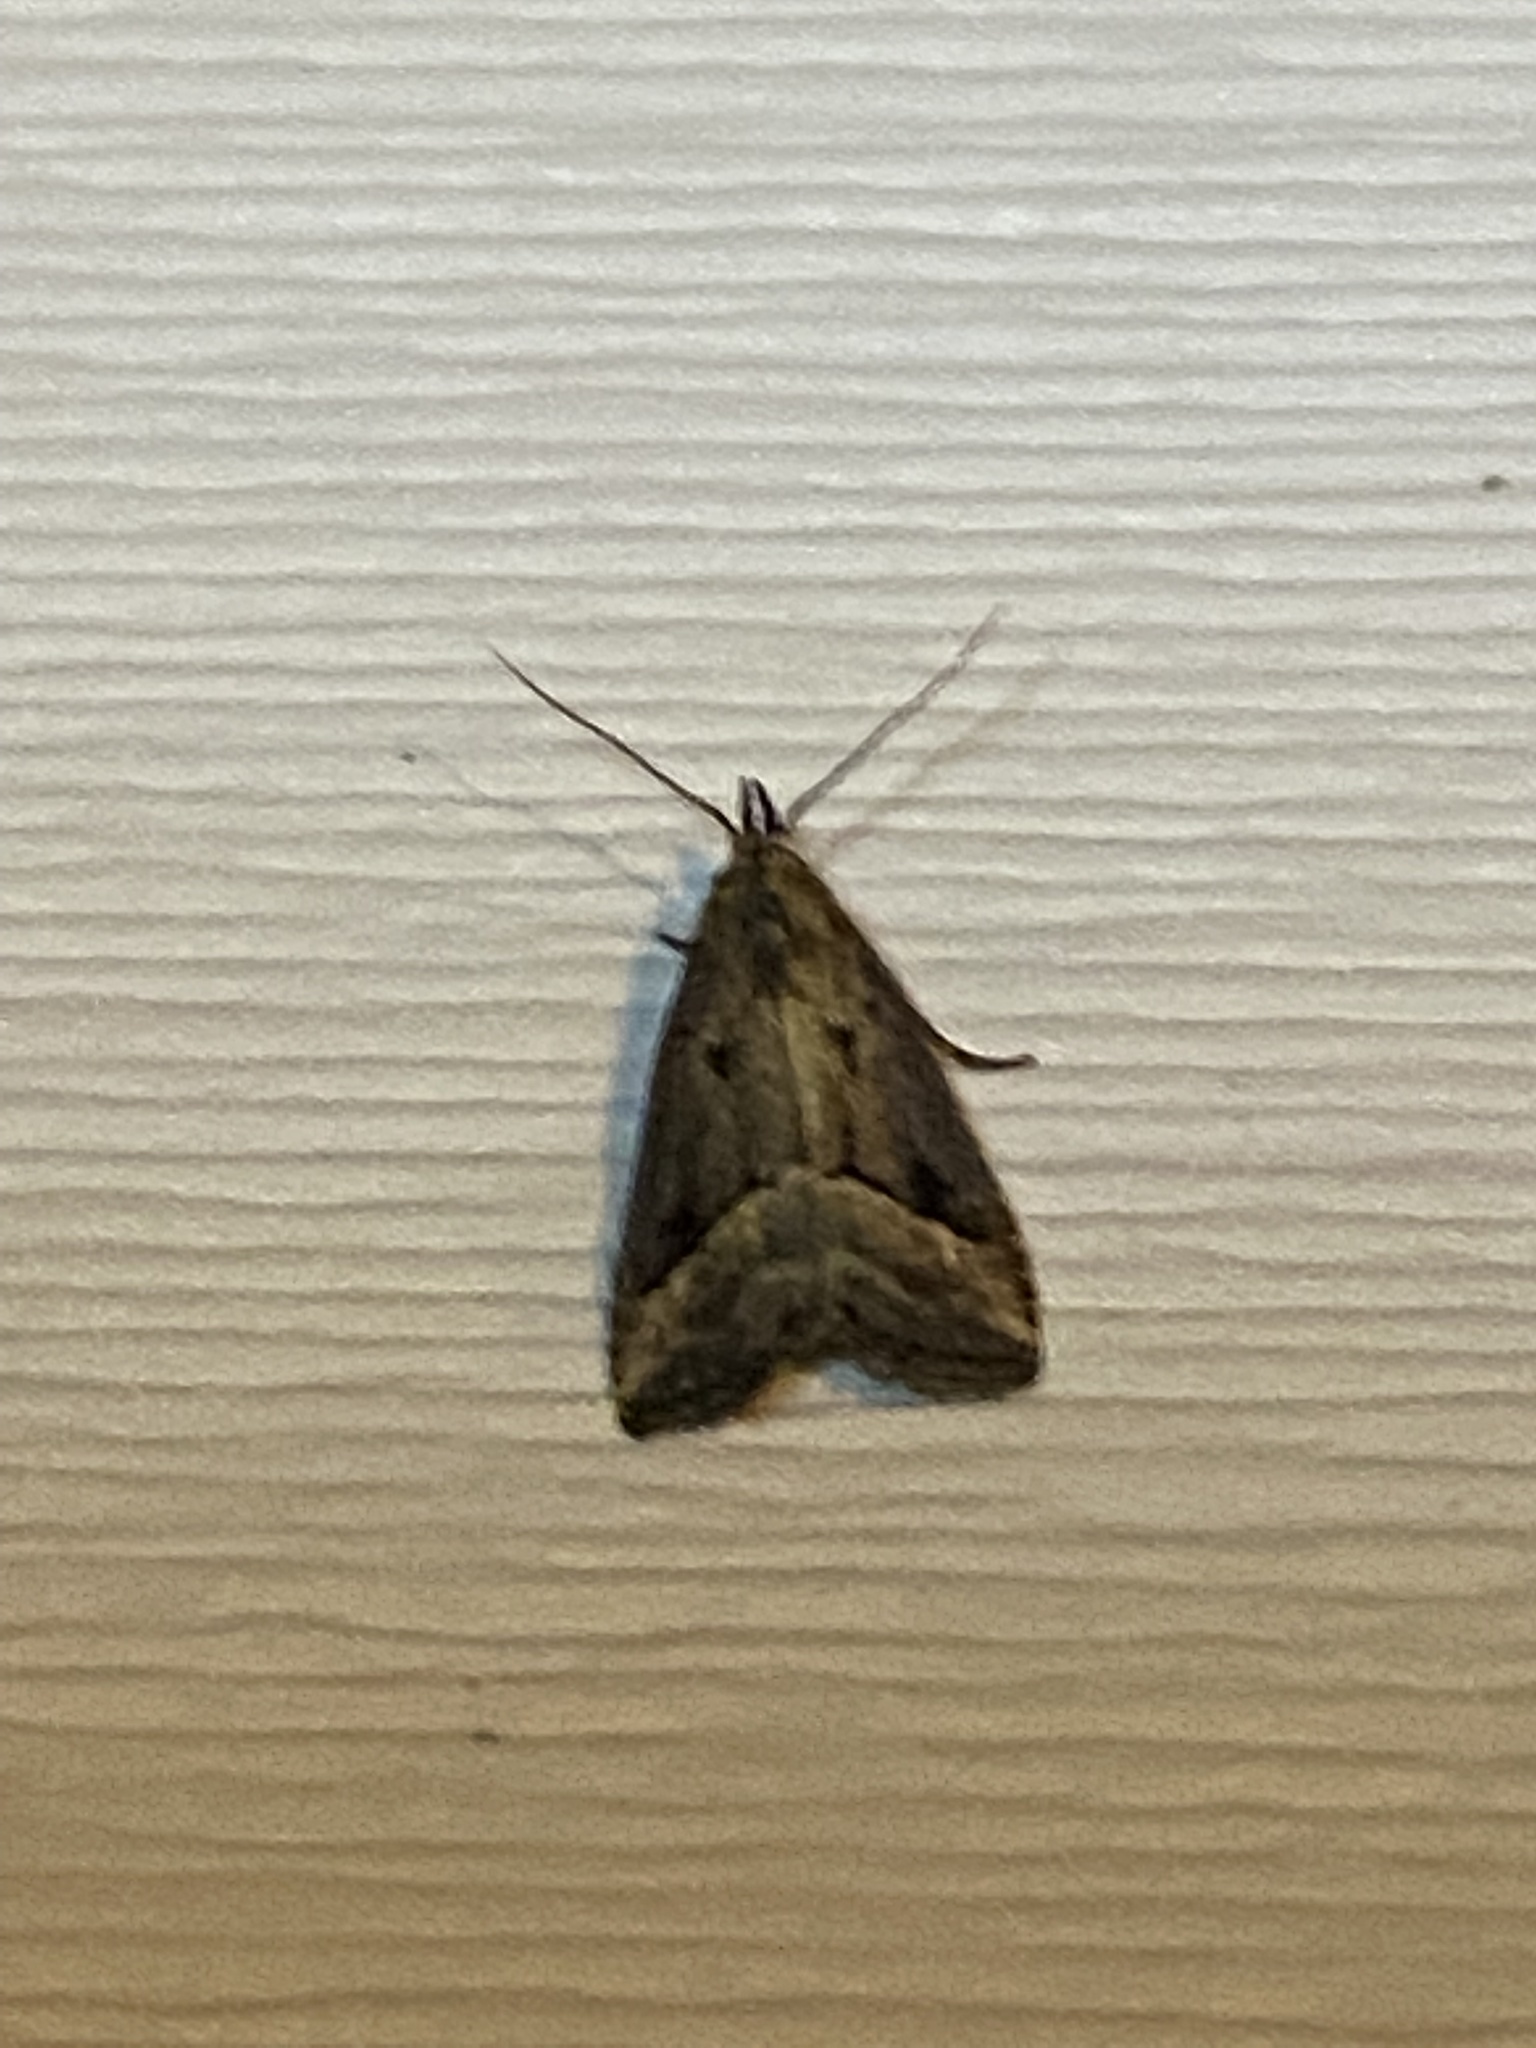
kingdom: Animalia
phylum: Arthropoda
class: Insecta
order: Lepidoptera
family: Erebidae
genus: Schrankia
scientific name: Schrankia
